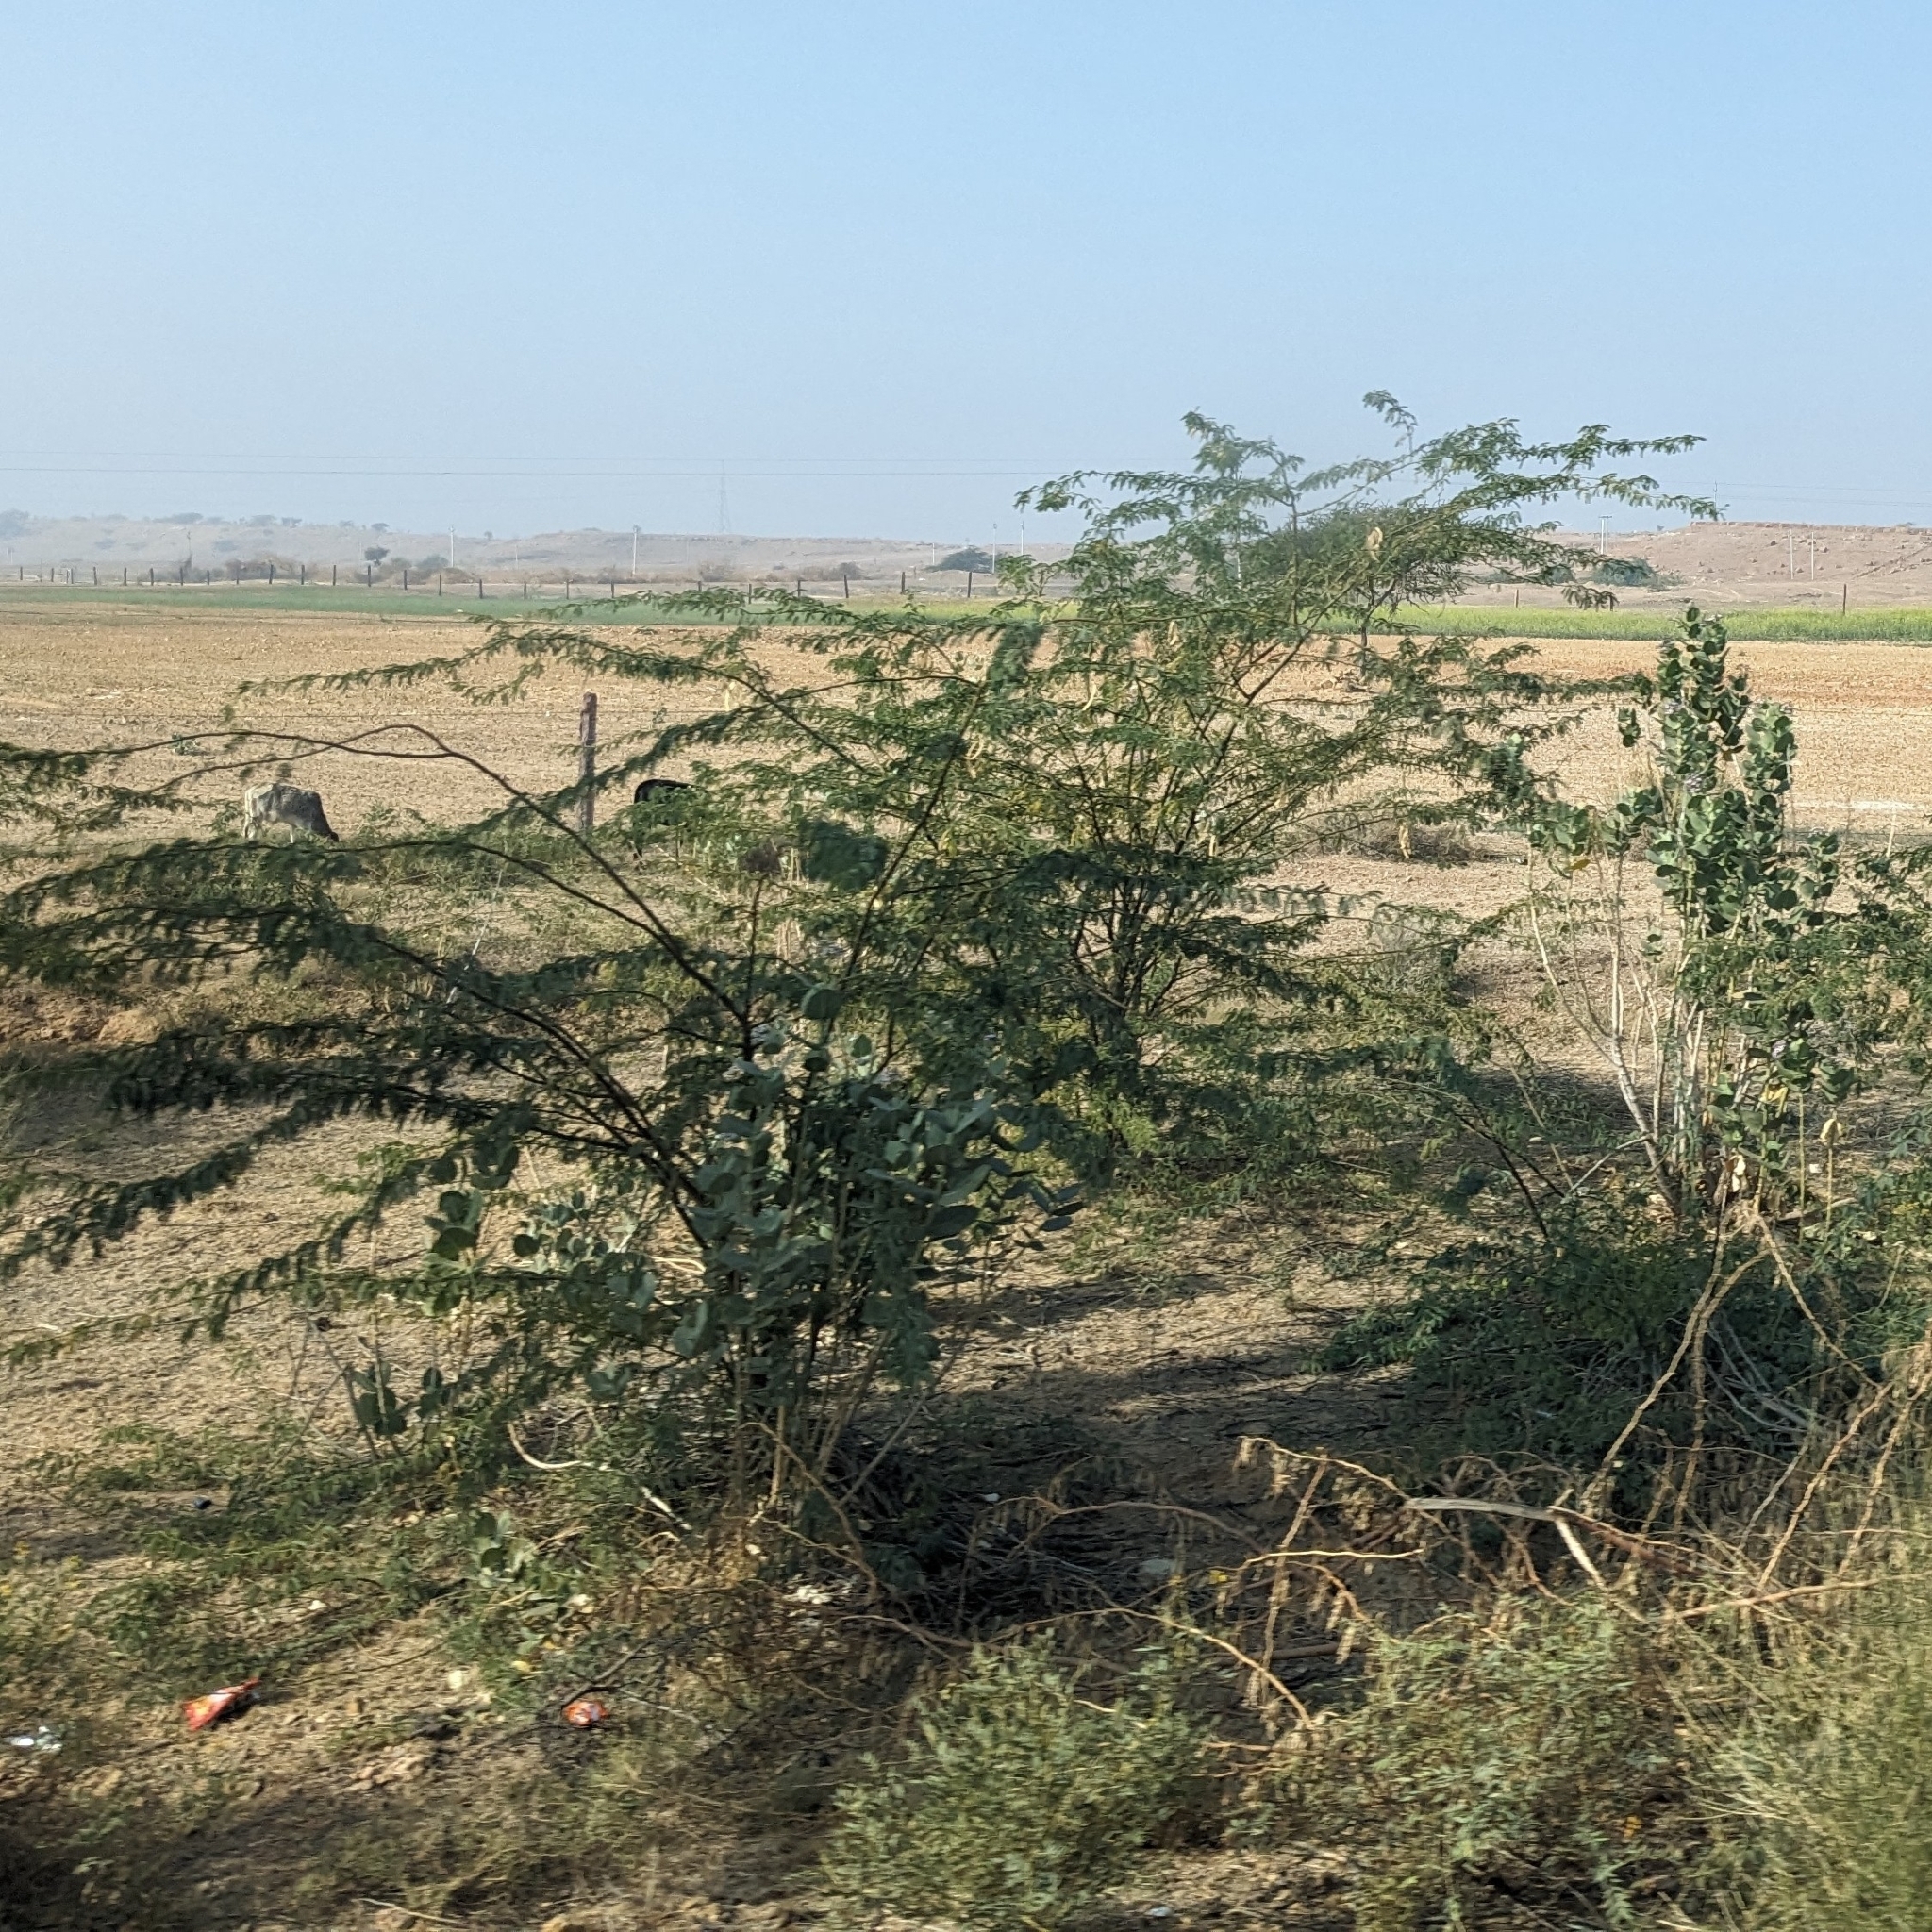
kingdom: Plantae
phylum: Tracheophyta
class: Magnoliopsida
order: Fabales
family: Fabaceae
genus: Prosopis
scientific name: Prosopis juliflora
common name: Mesquite
